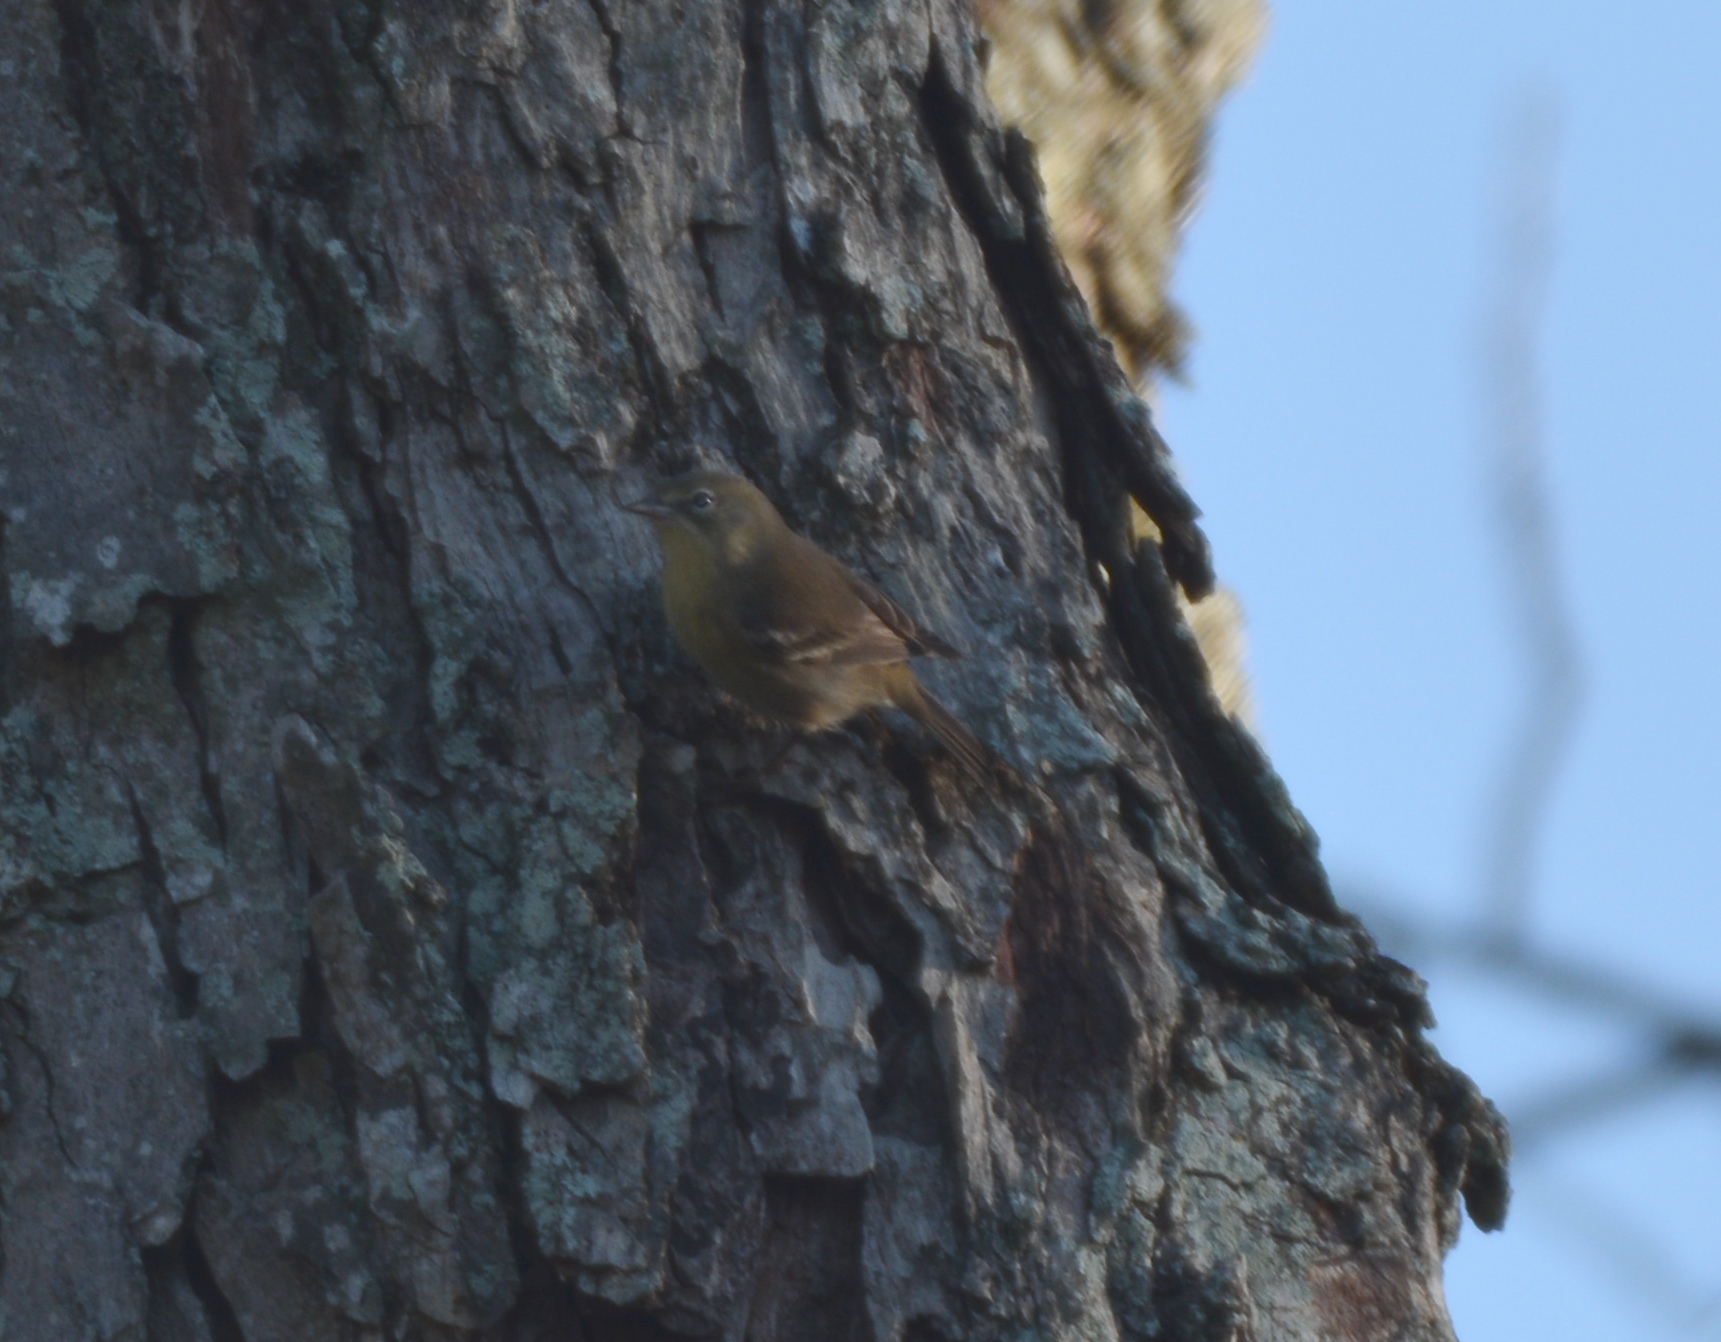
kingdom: Animalia
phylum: Chordata
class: Aves
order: Passeriformes
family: Parulidae
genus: Setophaga
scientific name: Setophaga pinus
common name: Pine warbler
